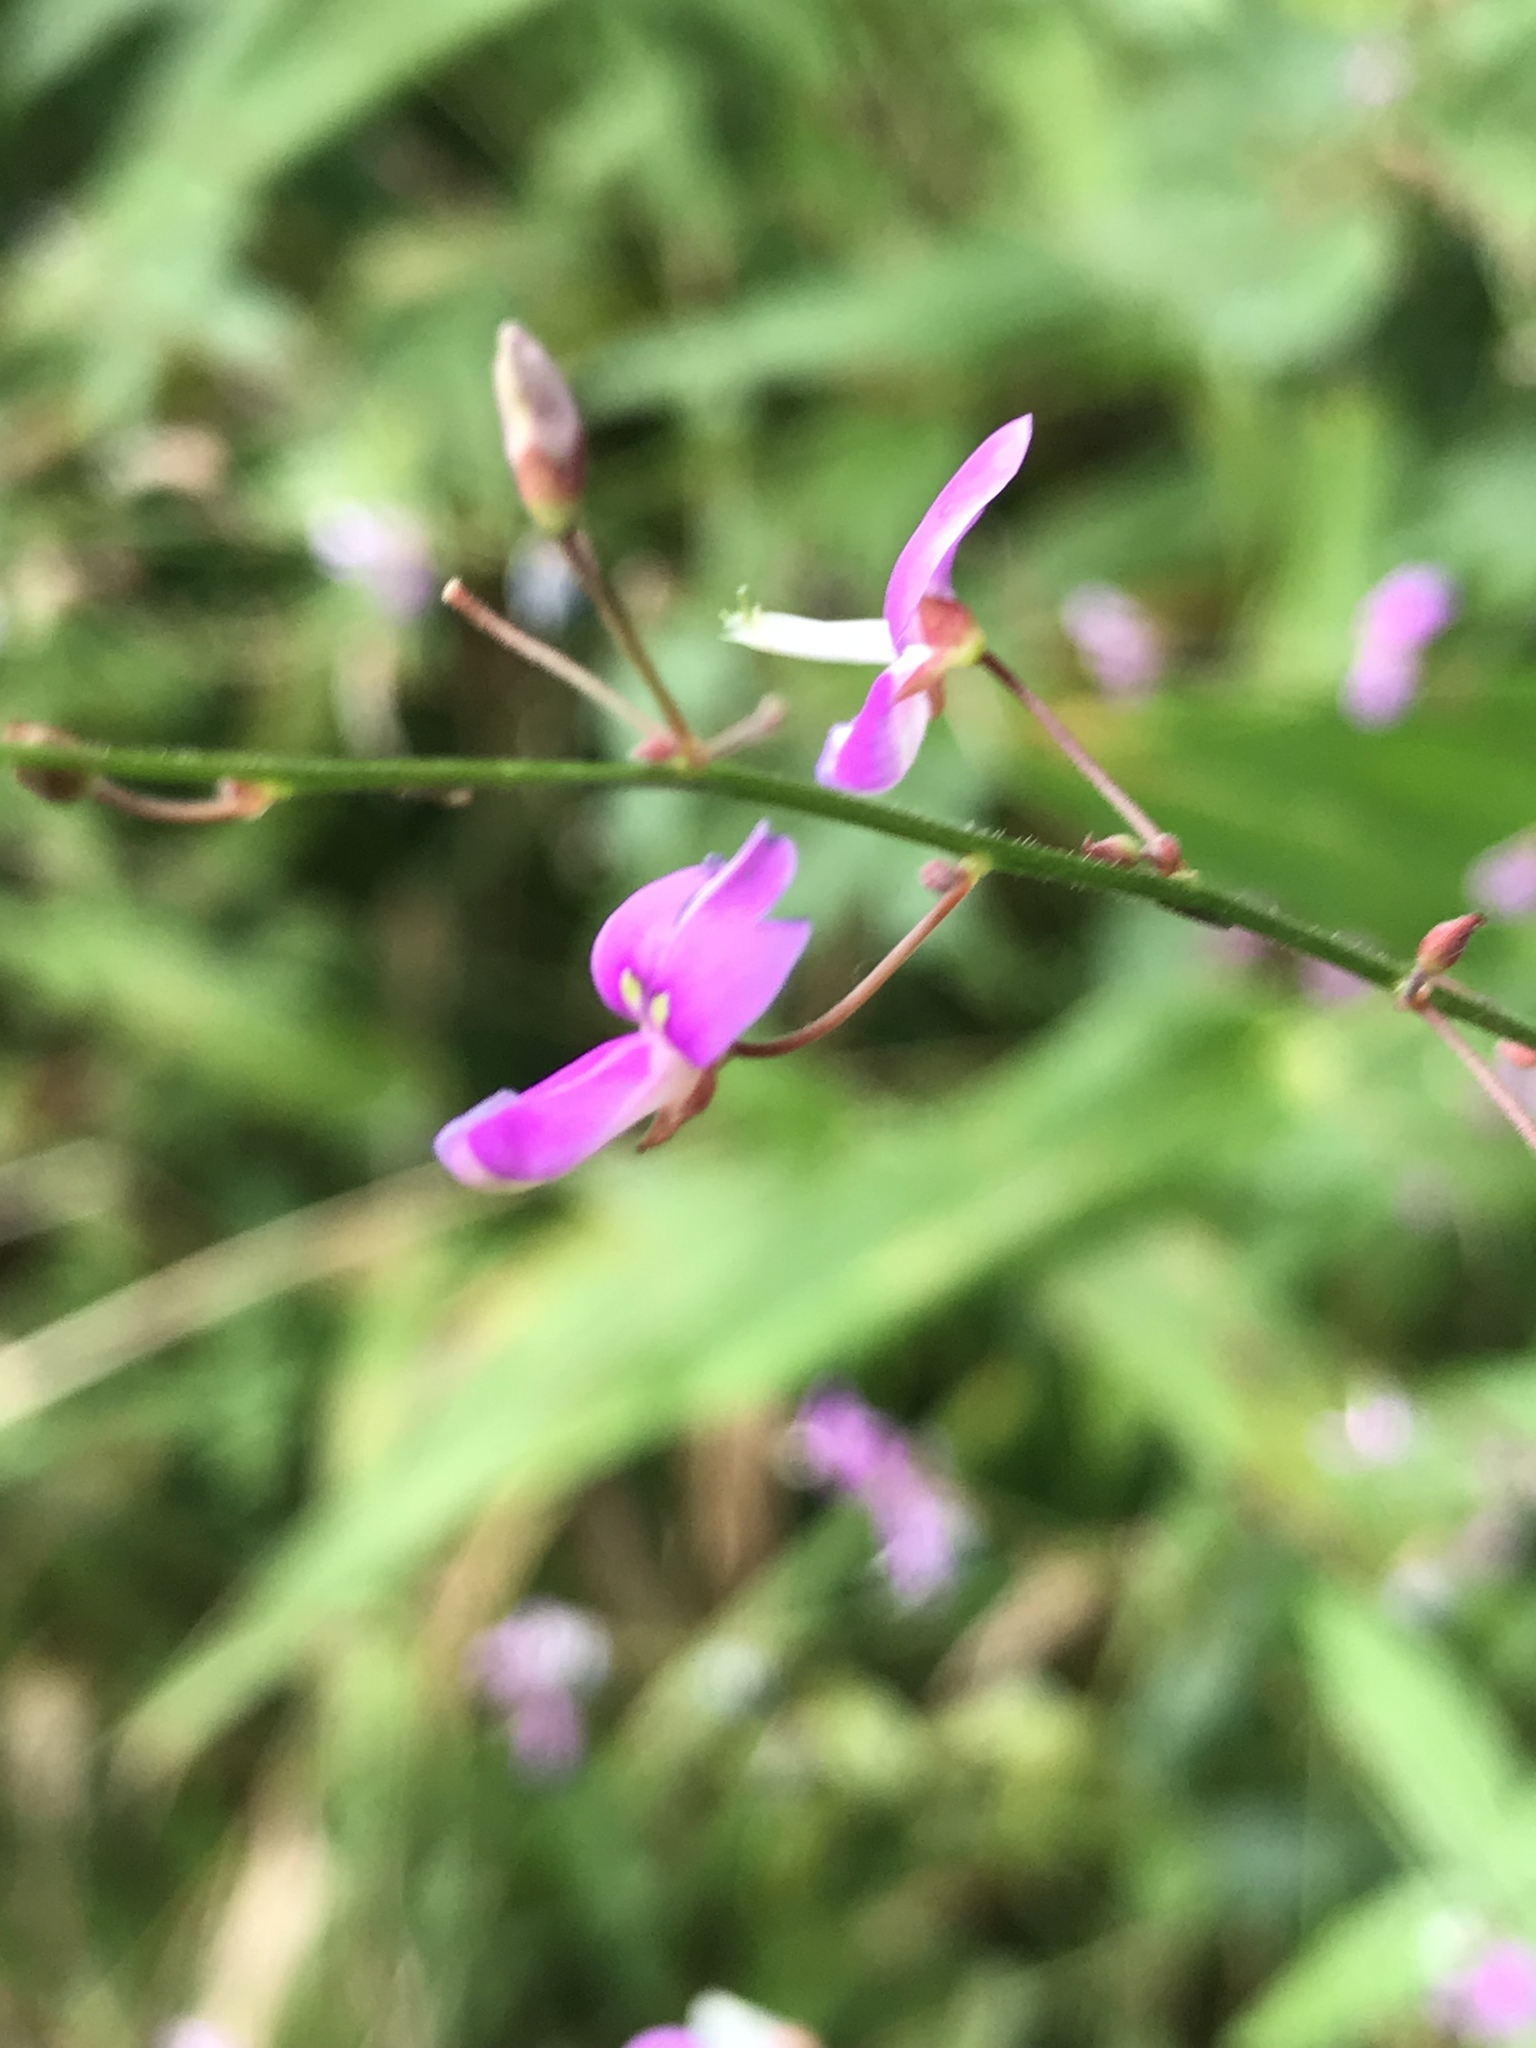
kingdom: Plantae
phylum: Tracheophyta
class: Magnoliopsida
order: Fabales
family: Fabaceae
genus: Desmodium
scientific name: Desmodium paniculatum
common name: Panicled tick-clover
